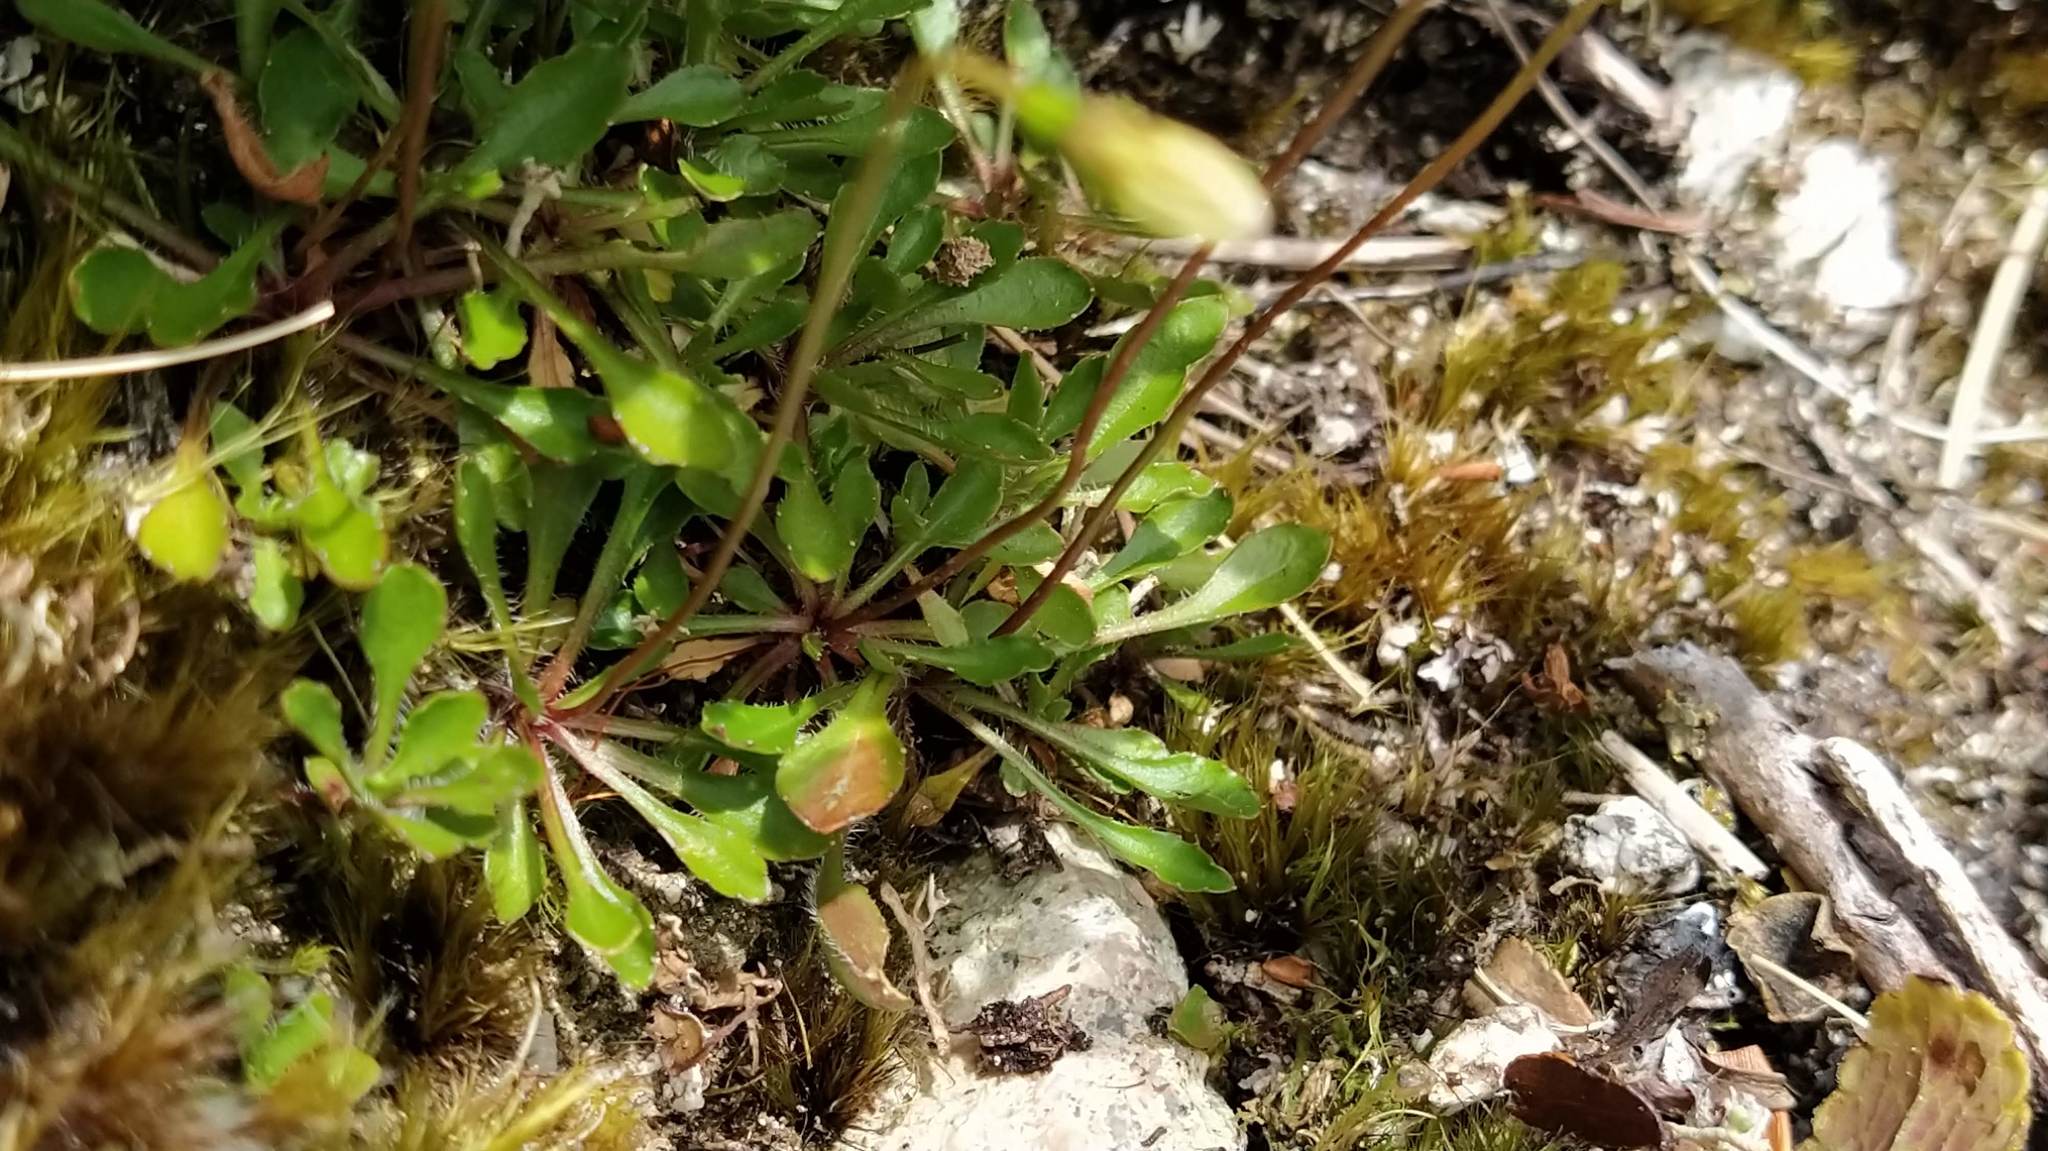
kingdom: Plantae
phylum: Tracheophyta
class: Magnoliopsida
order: Asterales
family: Campanulaceae
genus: Wahlenbergia
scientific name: Wahlenbergia albomarginata
